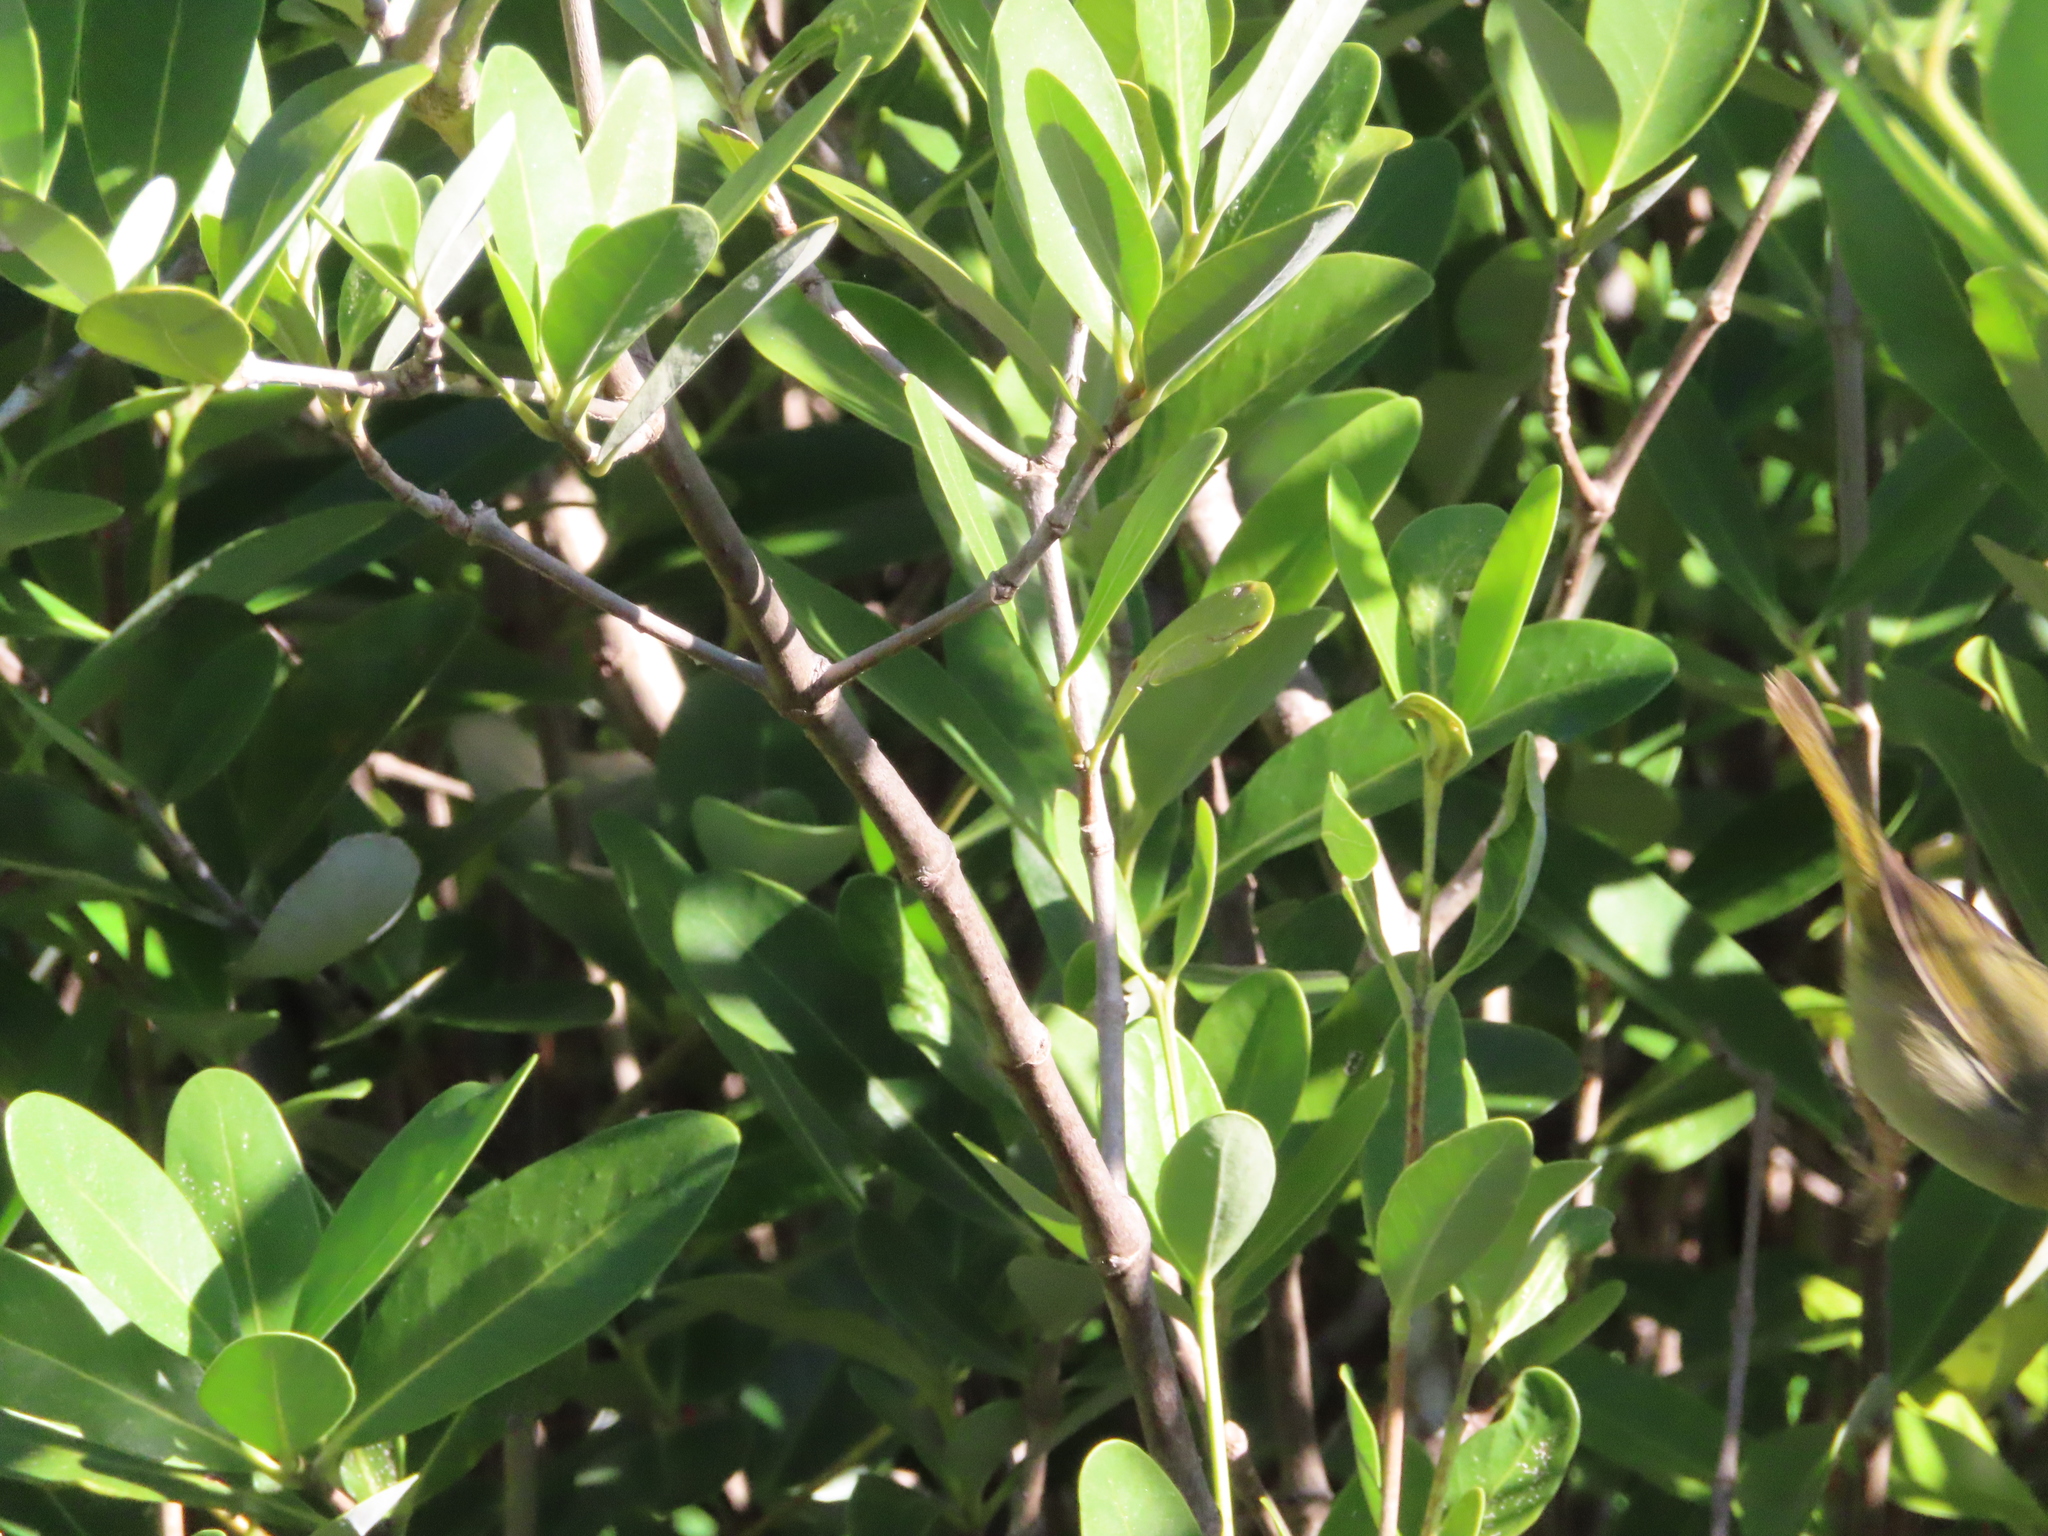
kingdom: Plantae
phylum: Tracheophyta
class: Magnoliopsida
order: Lamiales
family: Acanthaceae
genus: Avicennia
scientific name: Avicennia germinans
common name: Black mangrove
